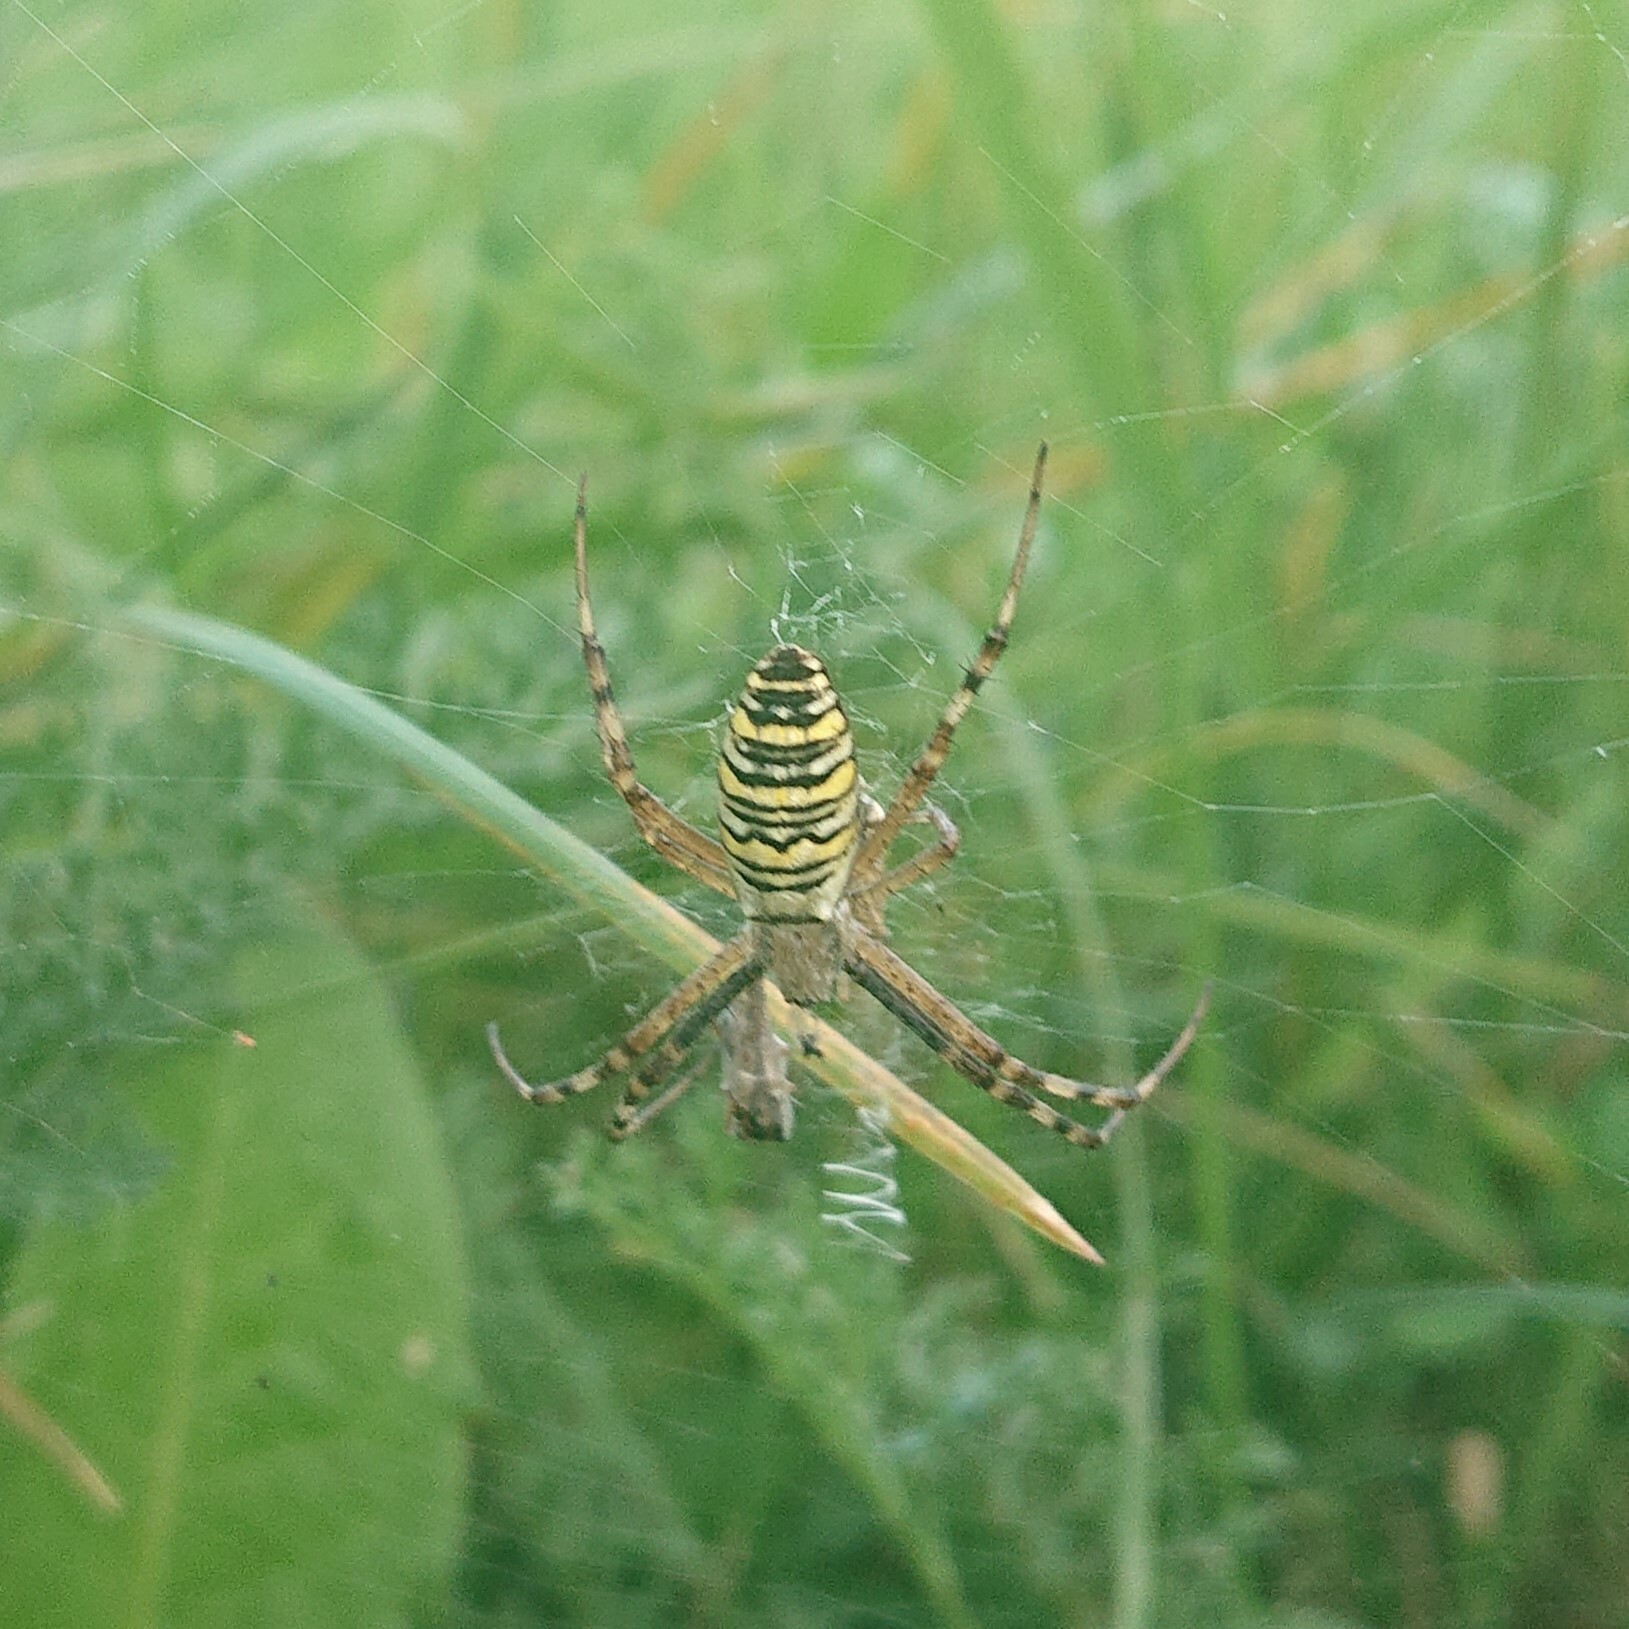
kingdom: Animalia
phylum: Arthropoda
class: Arachnida
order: Araneae
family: Araneidae
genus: Argiope
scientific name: Argiope bruennichi
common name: Wasp spider
